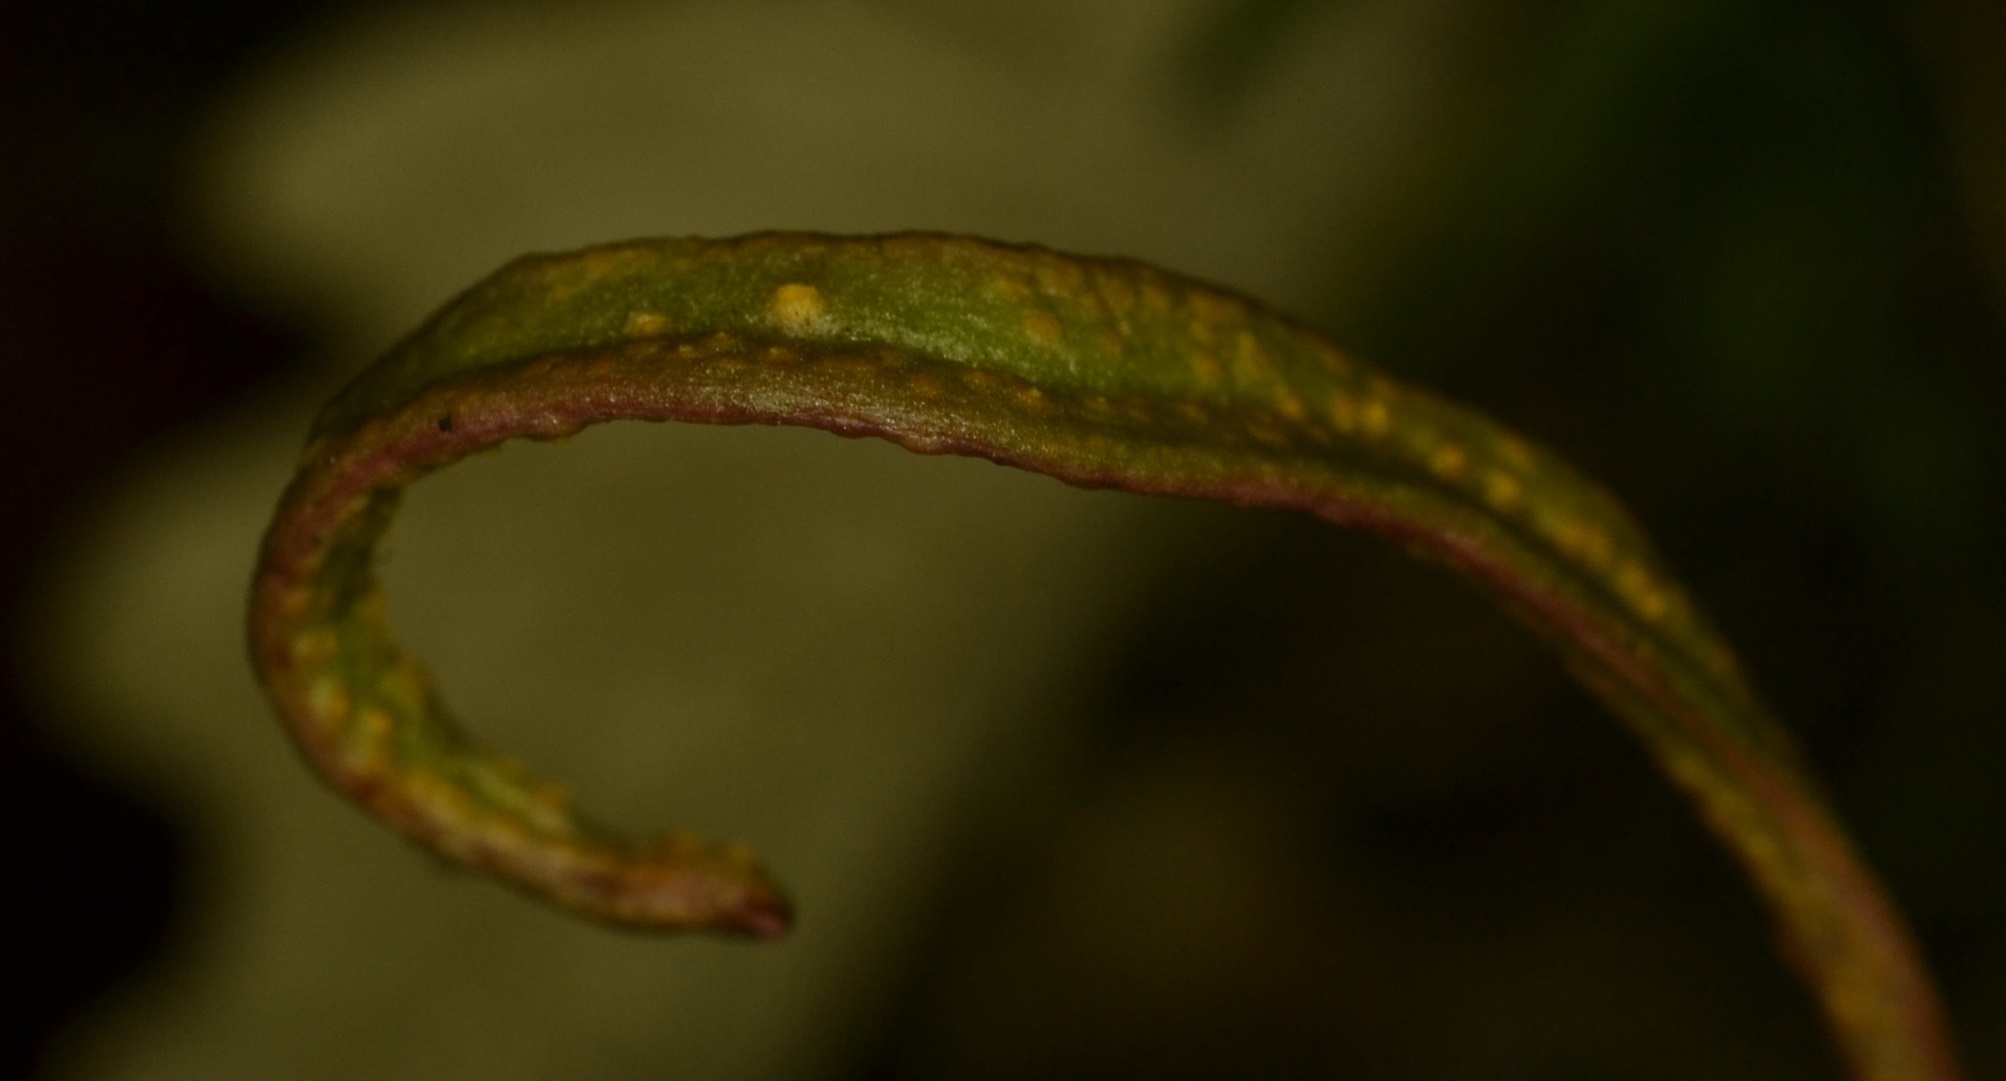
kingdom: Fungi
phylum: Basidiomycota
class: Pucciniomycetes
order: Pucciniales
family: Pucciniaceae
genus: Puccinia
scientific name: Puccinia mariae-wilsoniae
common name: Spring beauty rust
